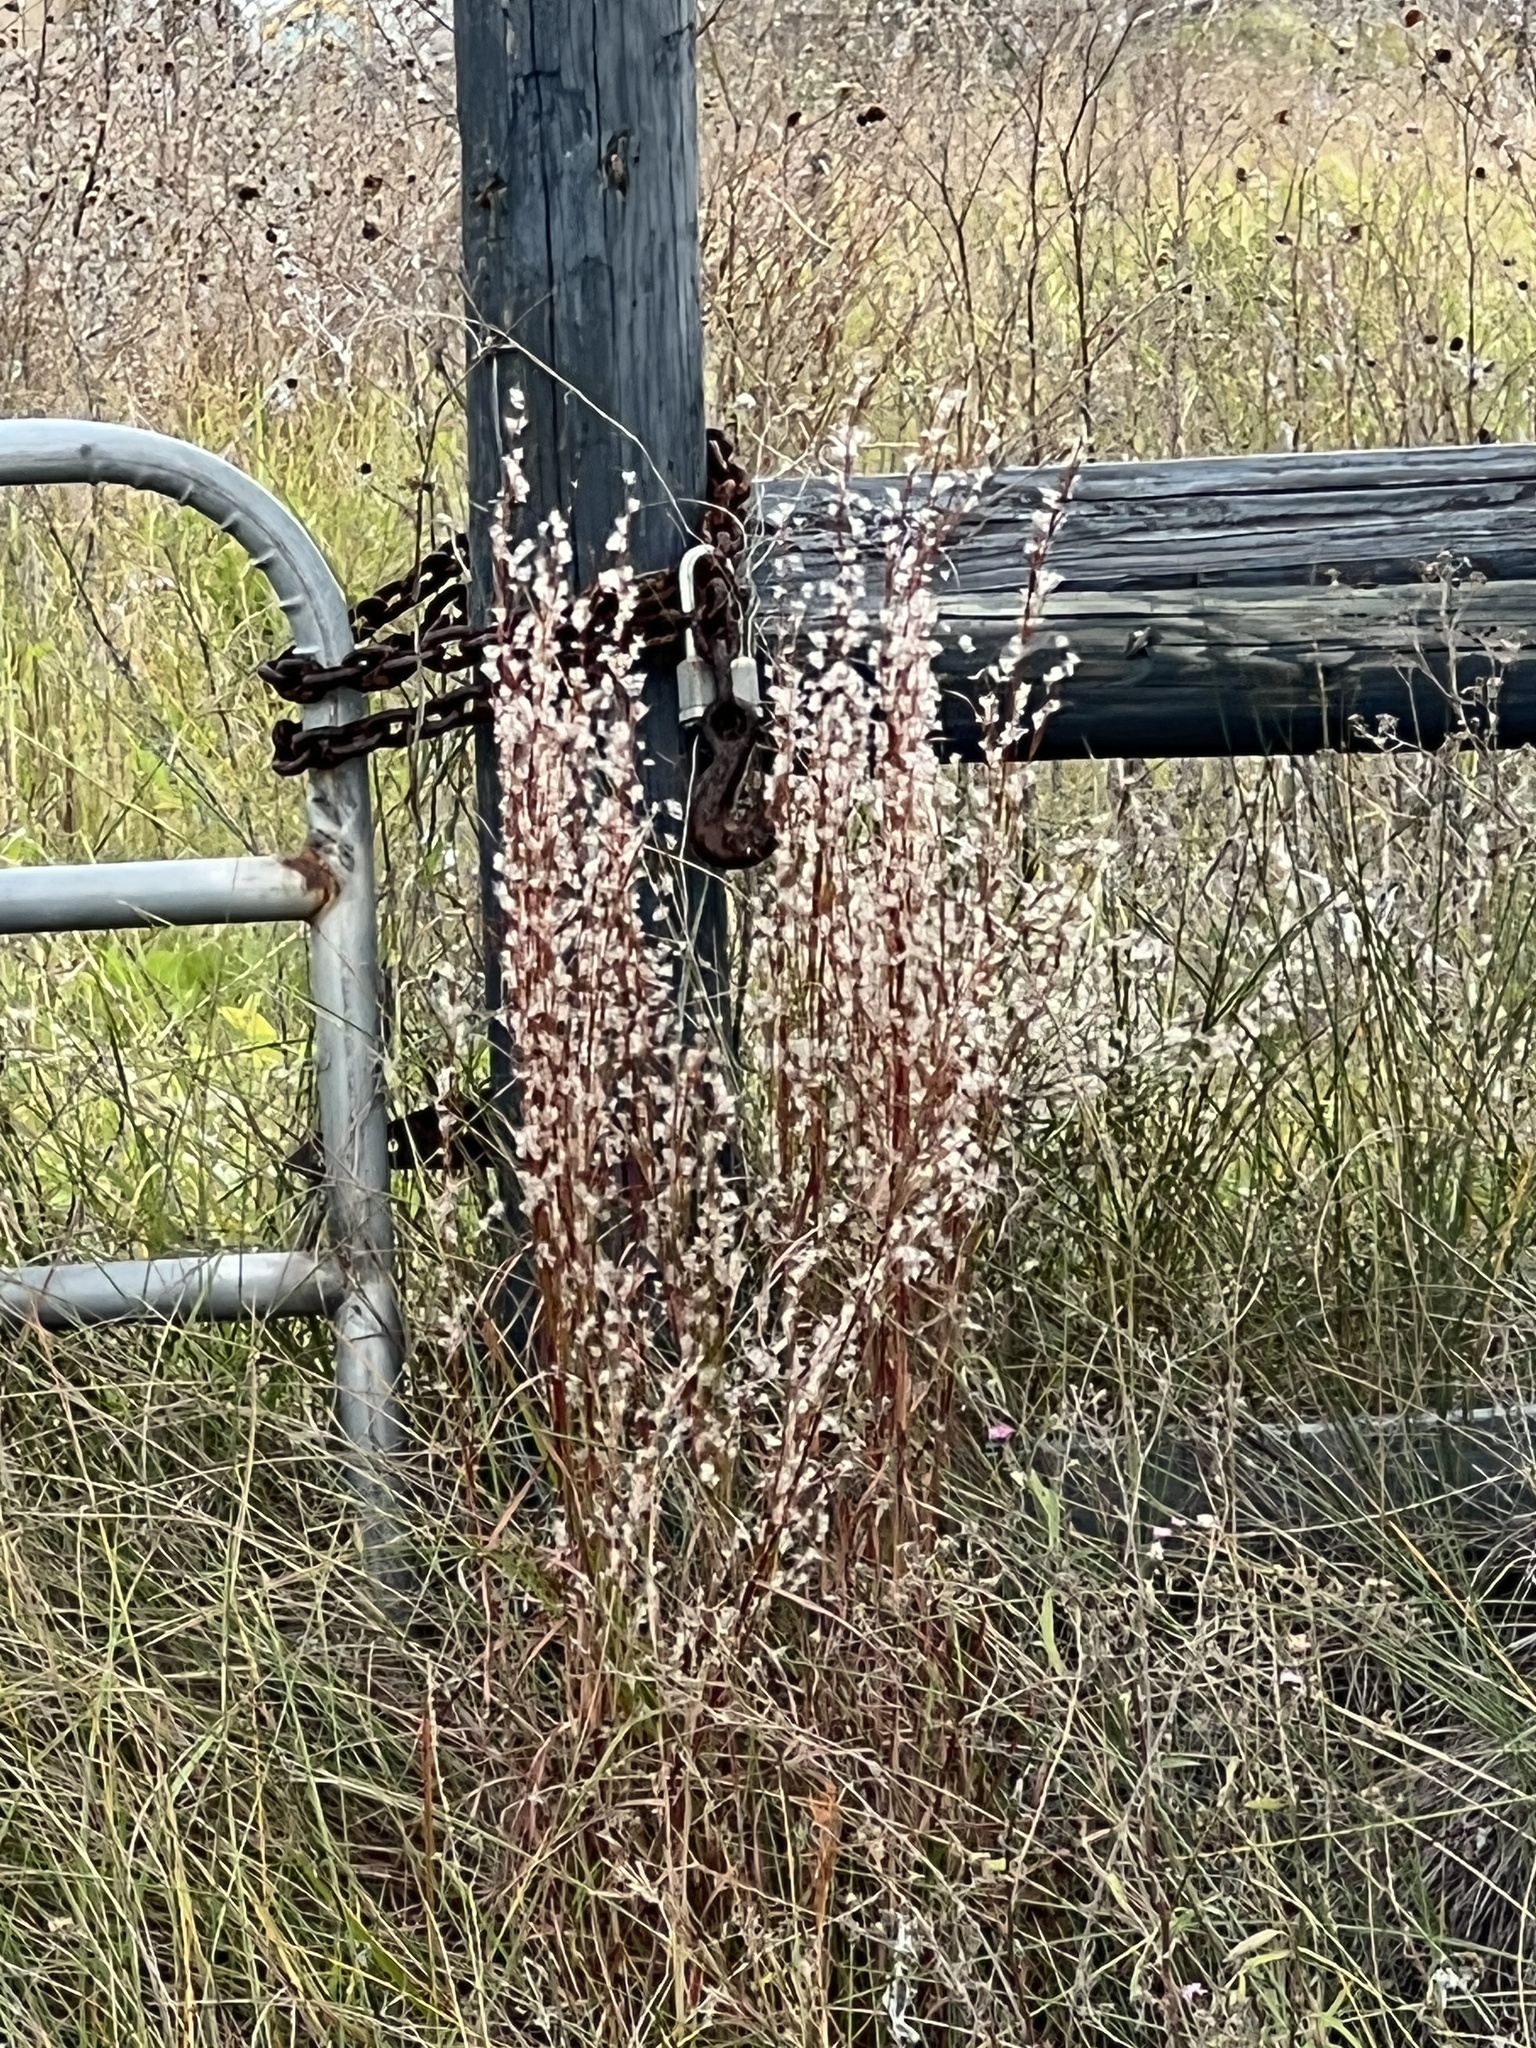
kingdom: Plantae
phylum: Tracheophyta
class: Liliopsida
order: Poales
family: Poaceae
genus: Schizachyrium
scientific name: Schizachyrium scoparium
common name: Little bluestem
